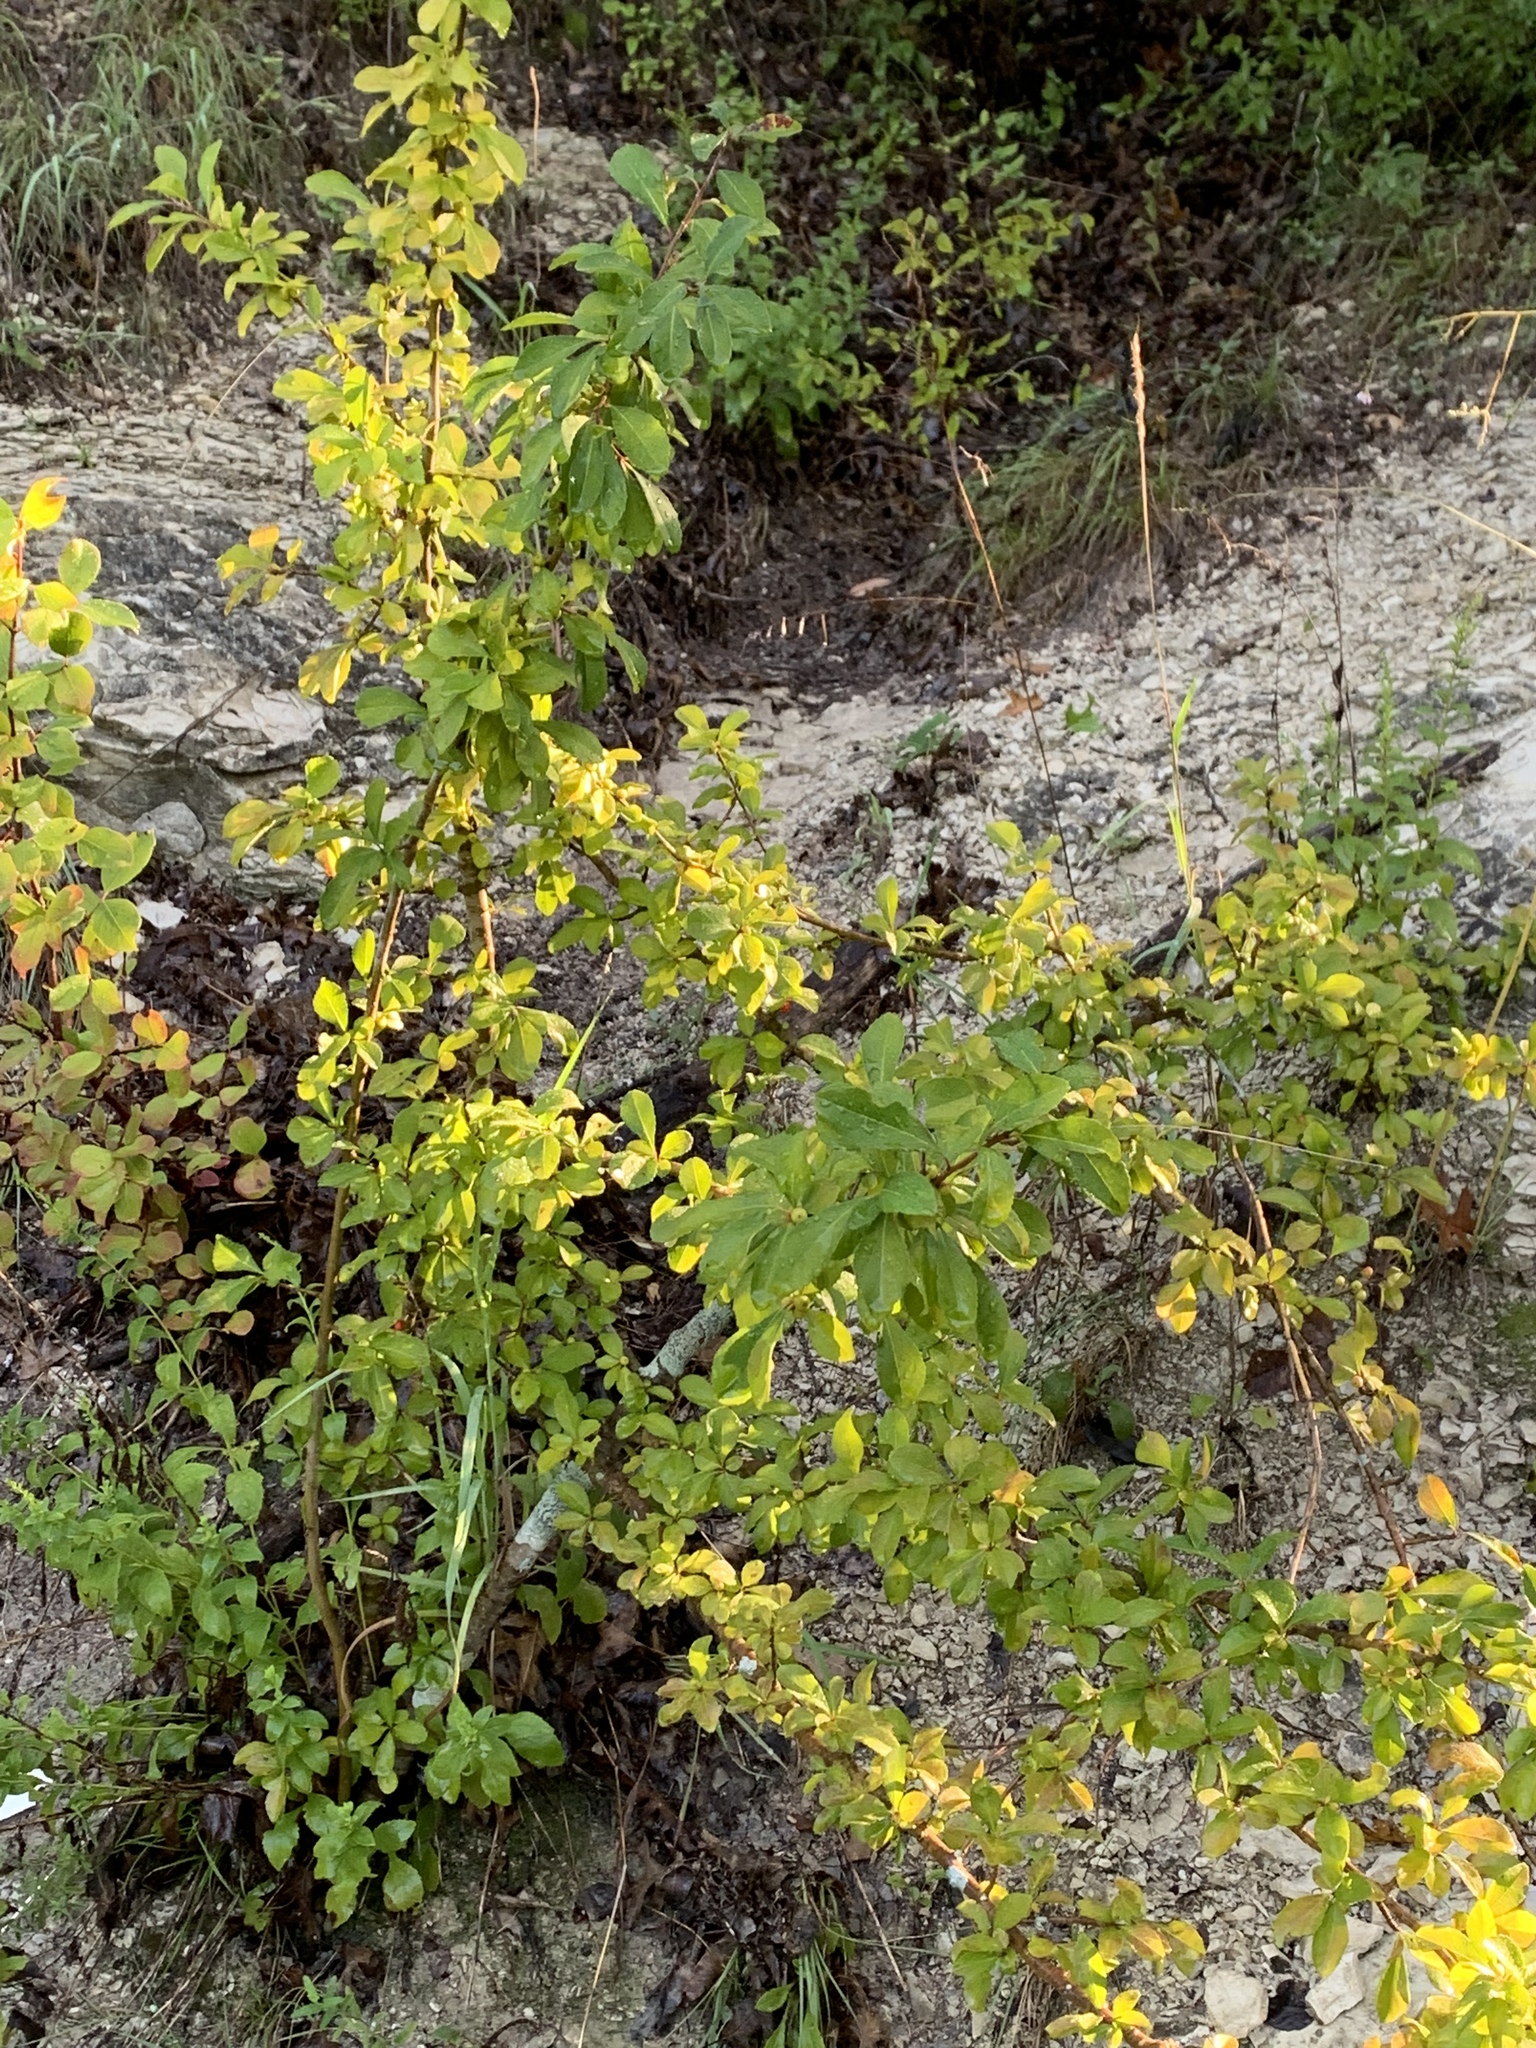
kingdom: Plantae
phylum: Tracheophyta
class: Magnoliopsida
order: Aquifoliales
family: Aquifoliaceae
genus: Ilex
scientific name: Ilex decidua
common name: Possum-haw
